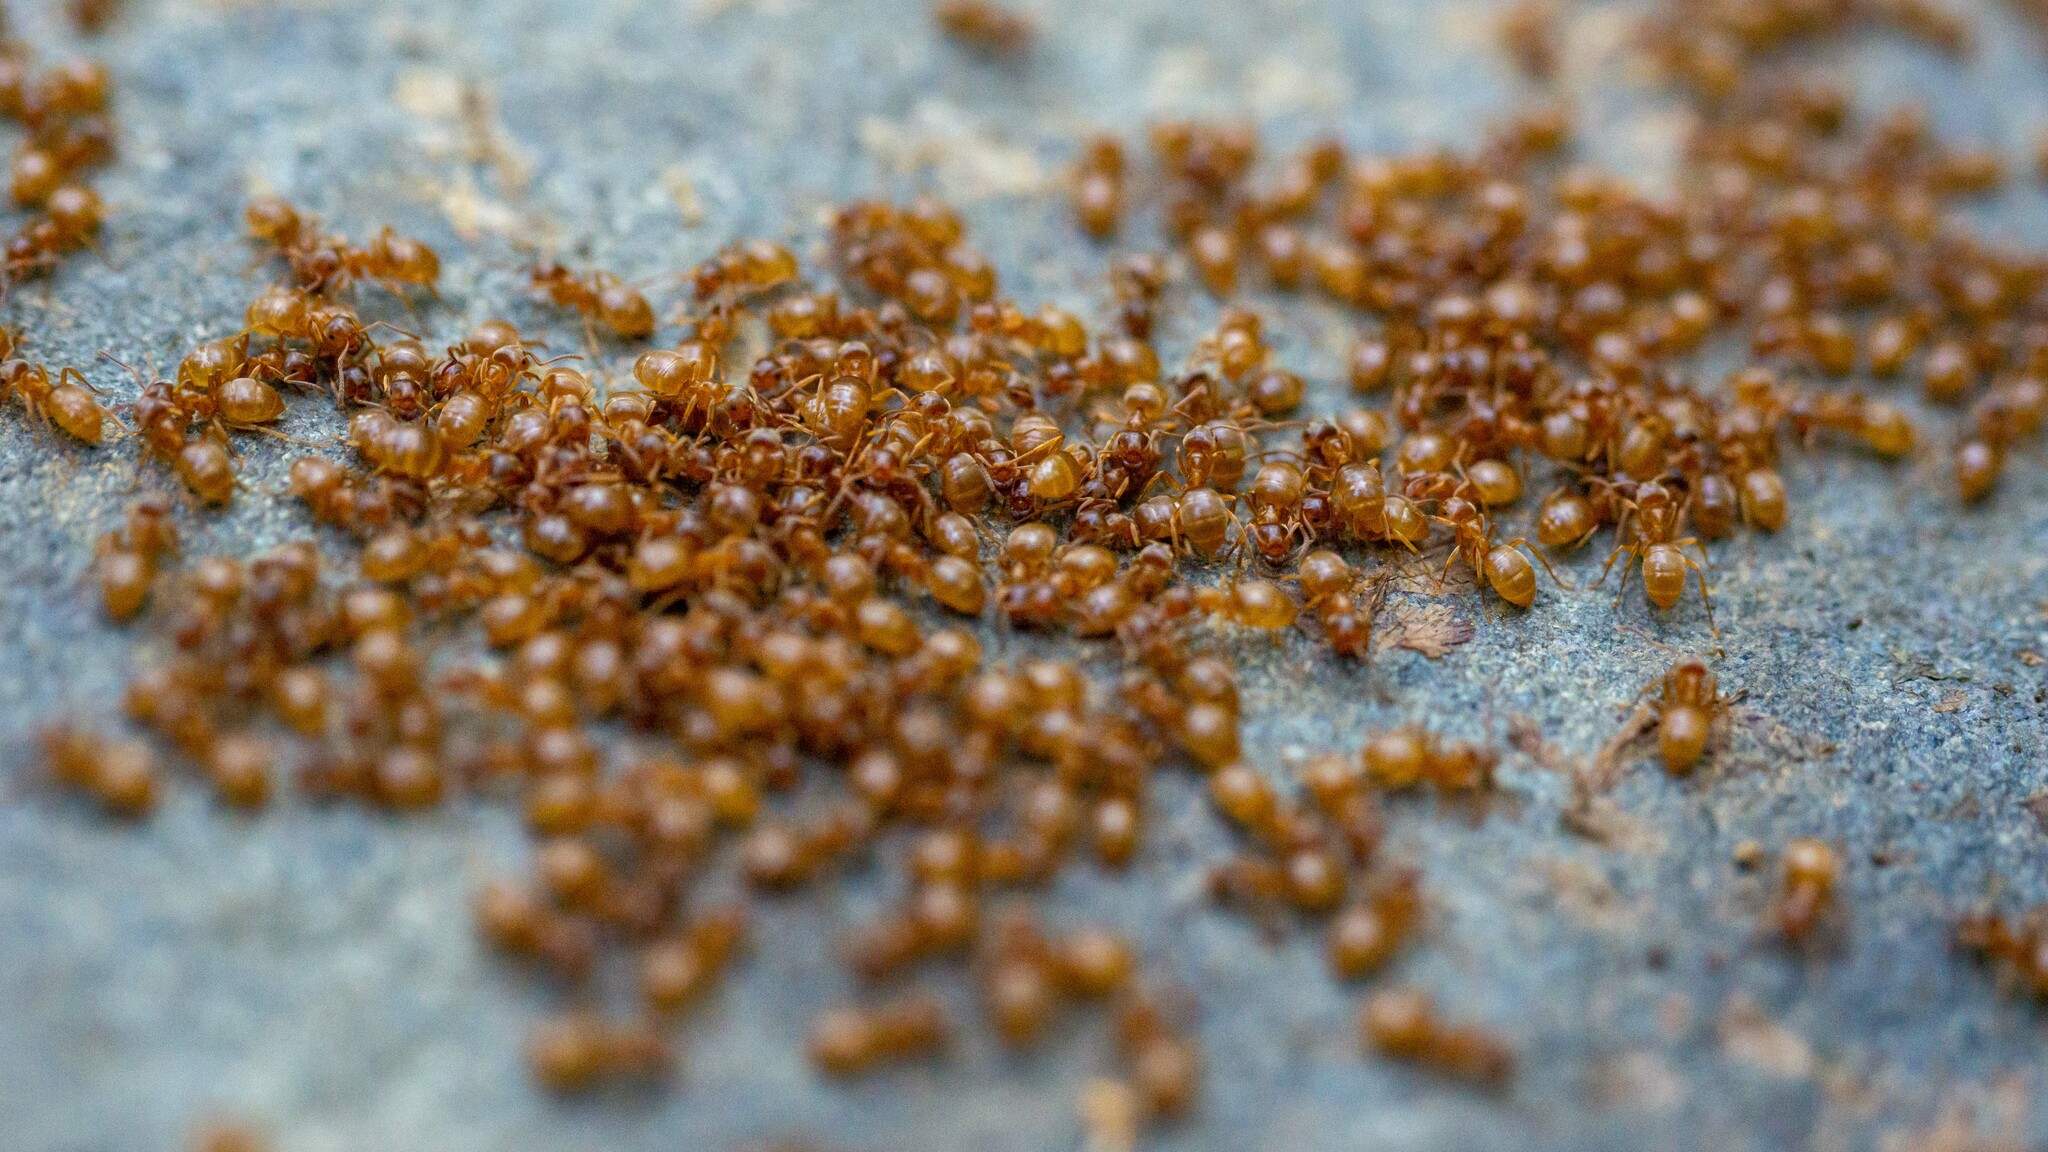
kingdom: Animalia
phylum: Arthropoda
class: Insecta
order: Hymenoptera
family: Formicidae
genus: Lasius
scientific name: Lasius aphidicola
